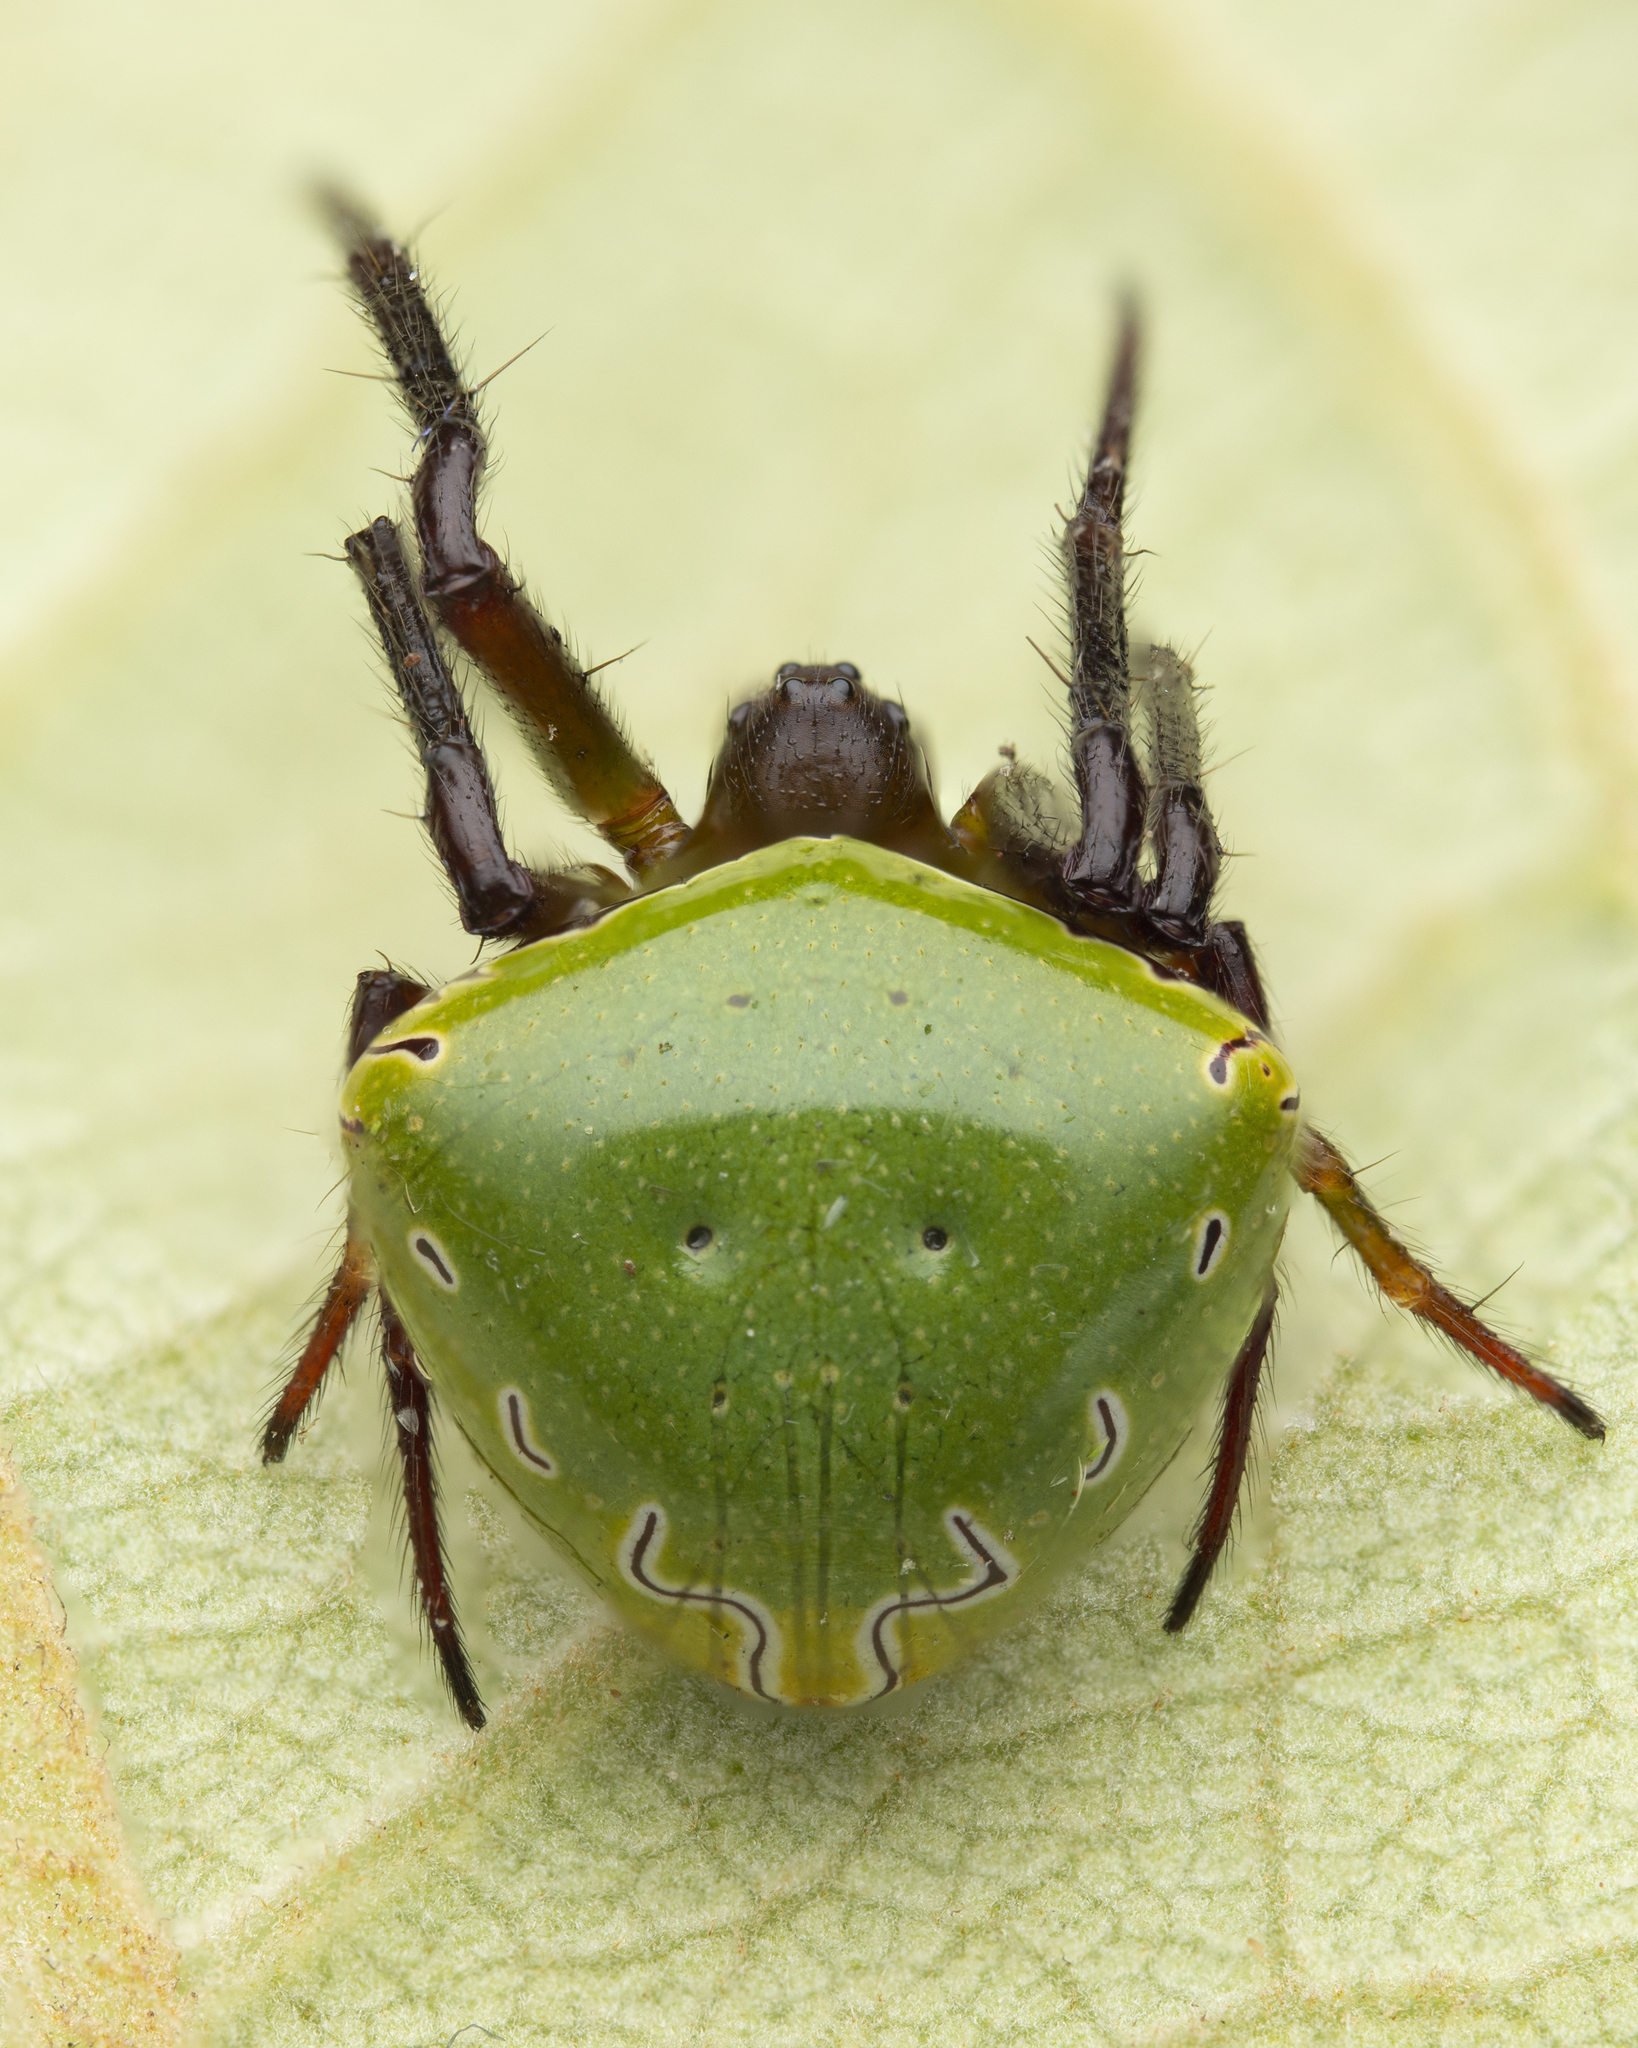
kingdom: Animalia
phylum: Arthropoda
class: Arachnida
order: Araneae
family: Araneidae
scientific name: Araneidae
